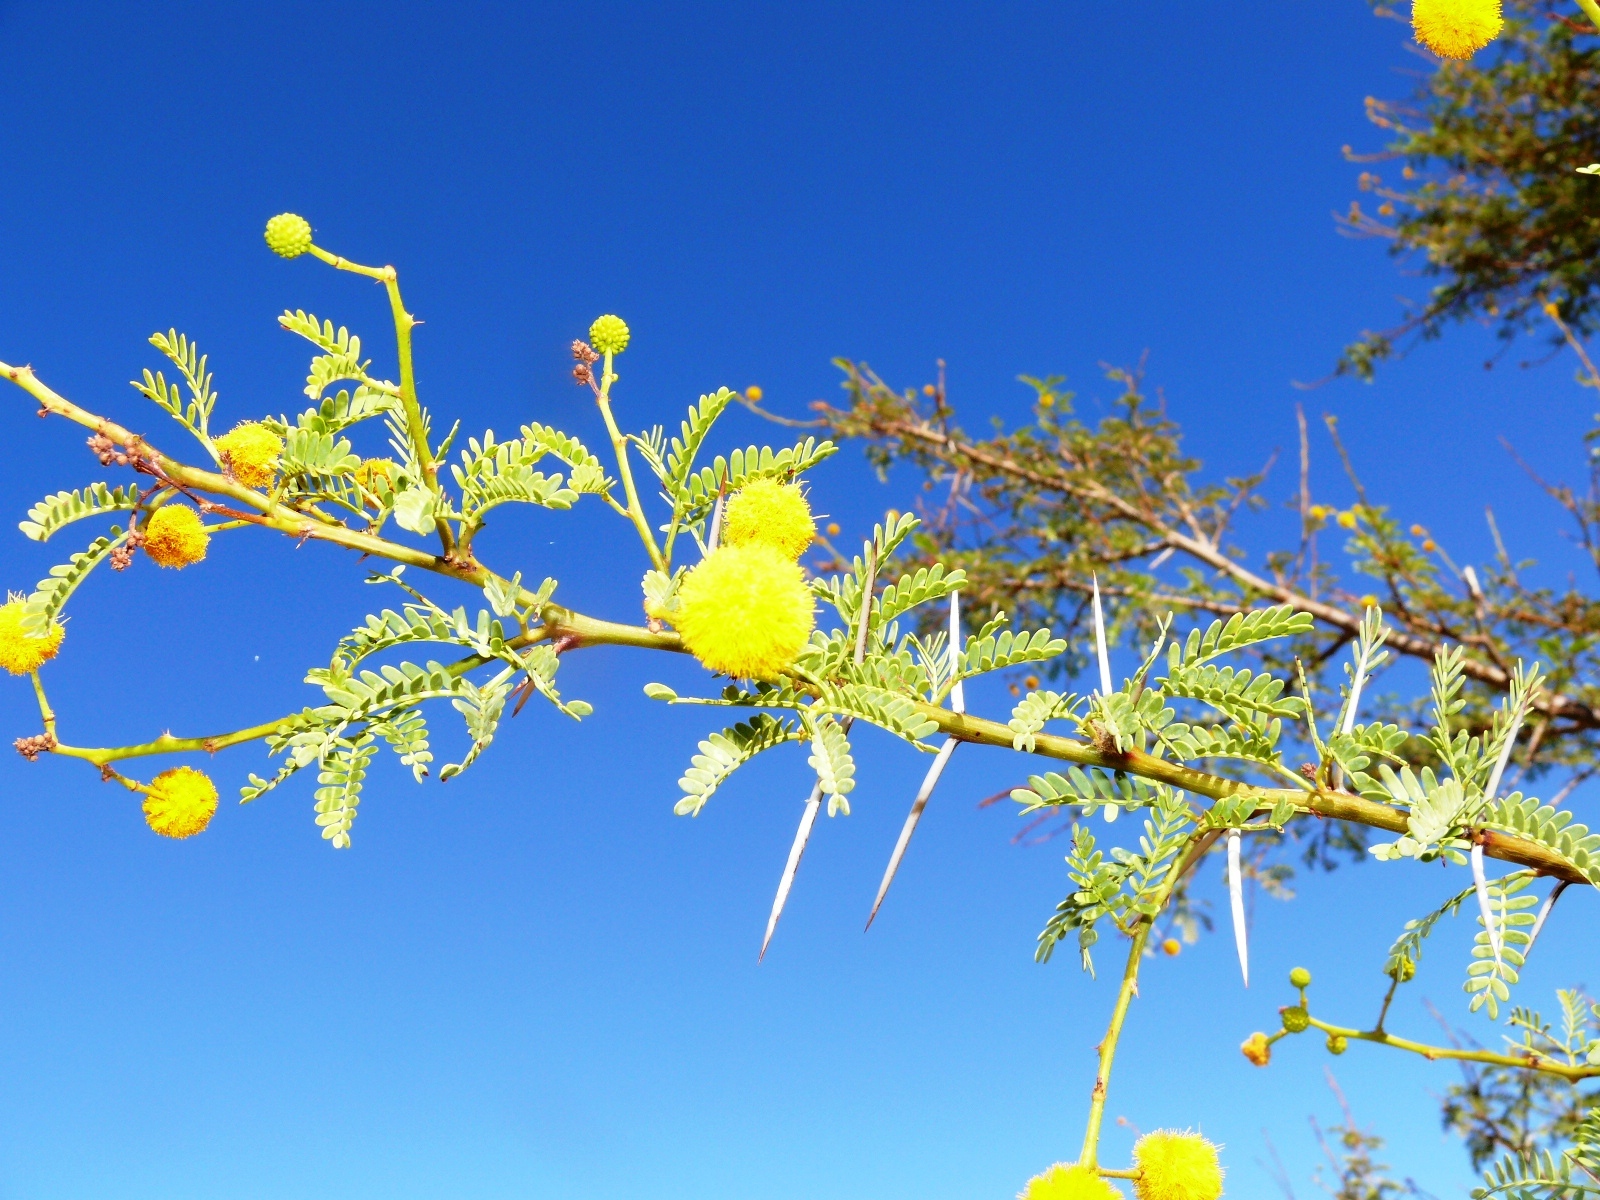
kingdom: Plantae
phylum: Tracheophyta
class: Magnoliopsida
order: Fabales
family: Fabaceae
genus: Vachellia
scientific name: Vachellia karroo
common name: Sweet thorn
